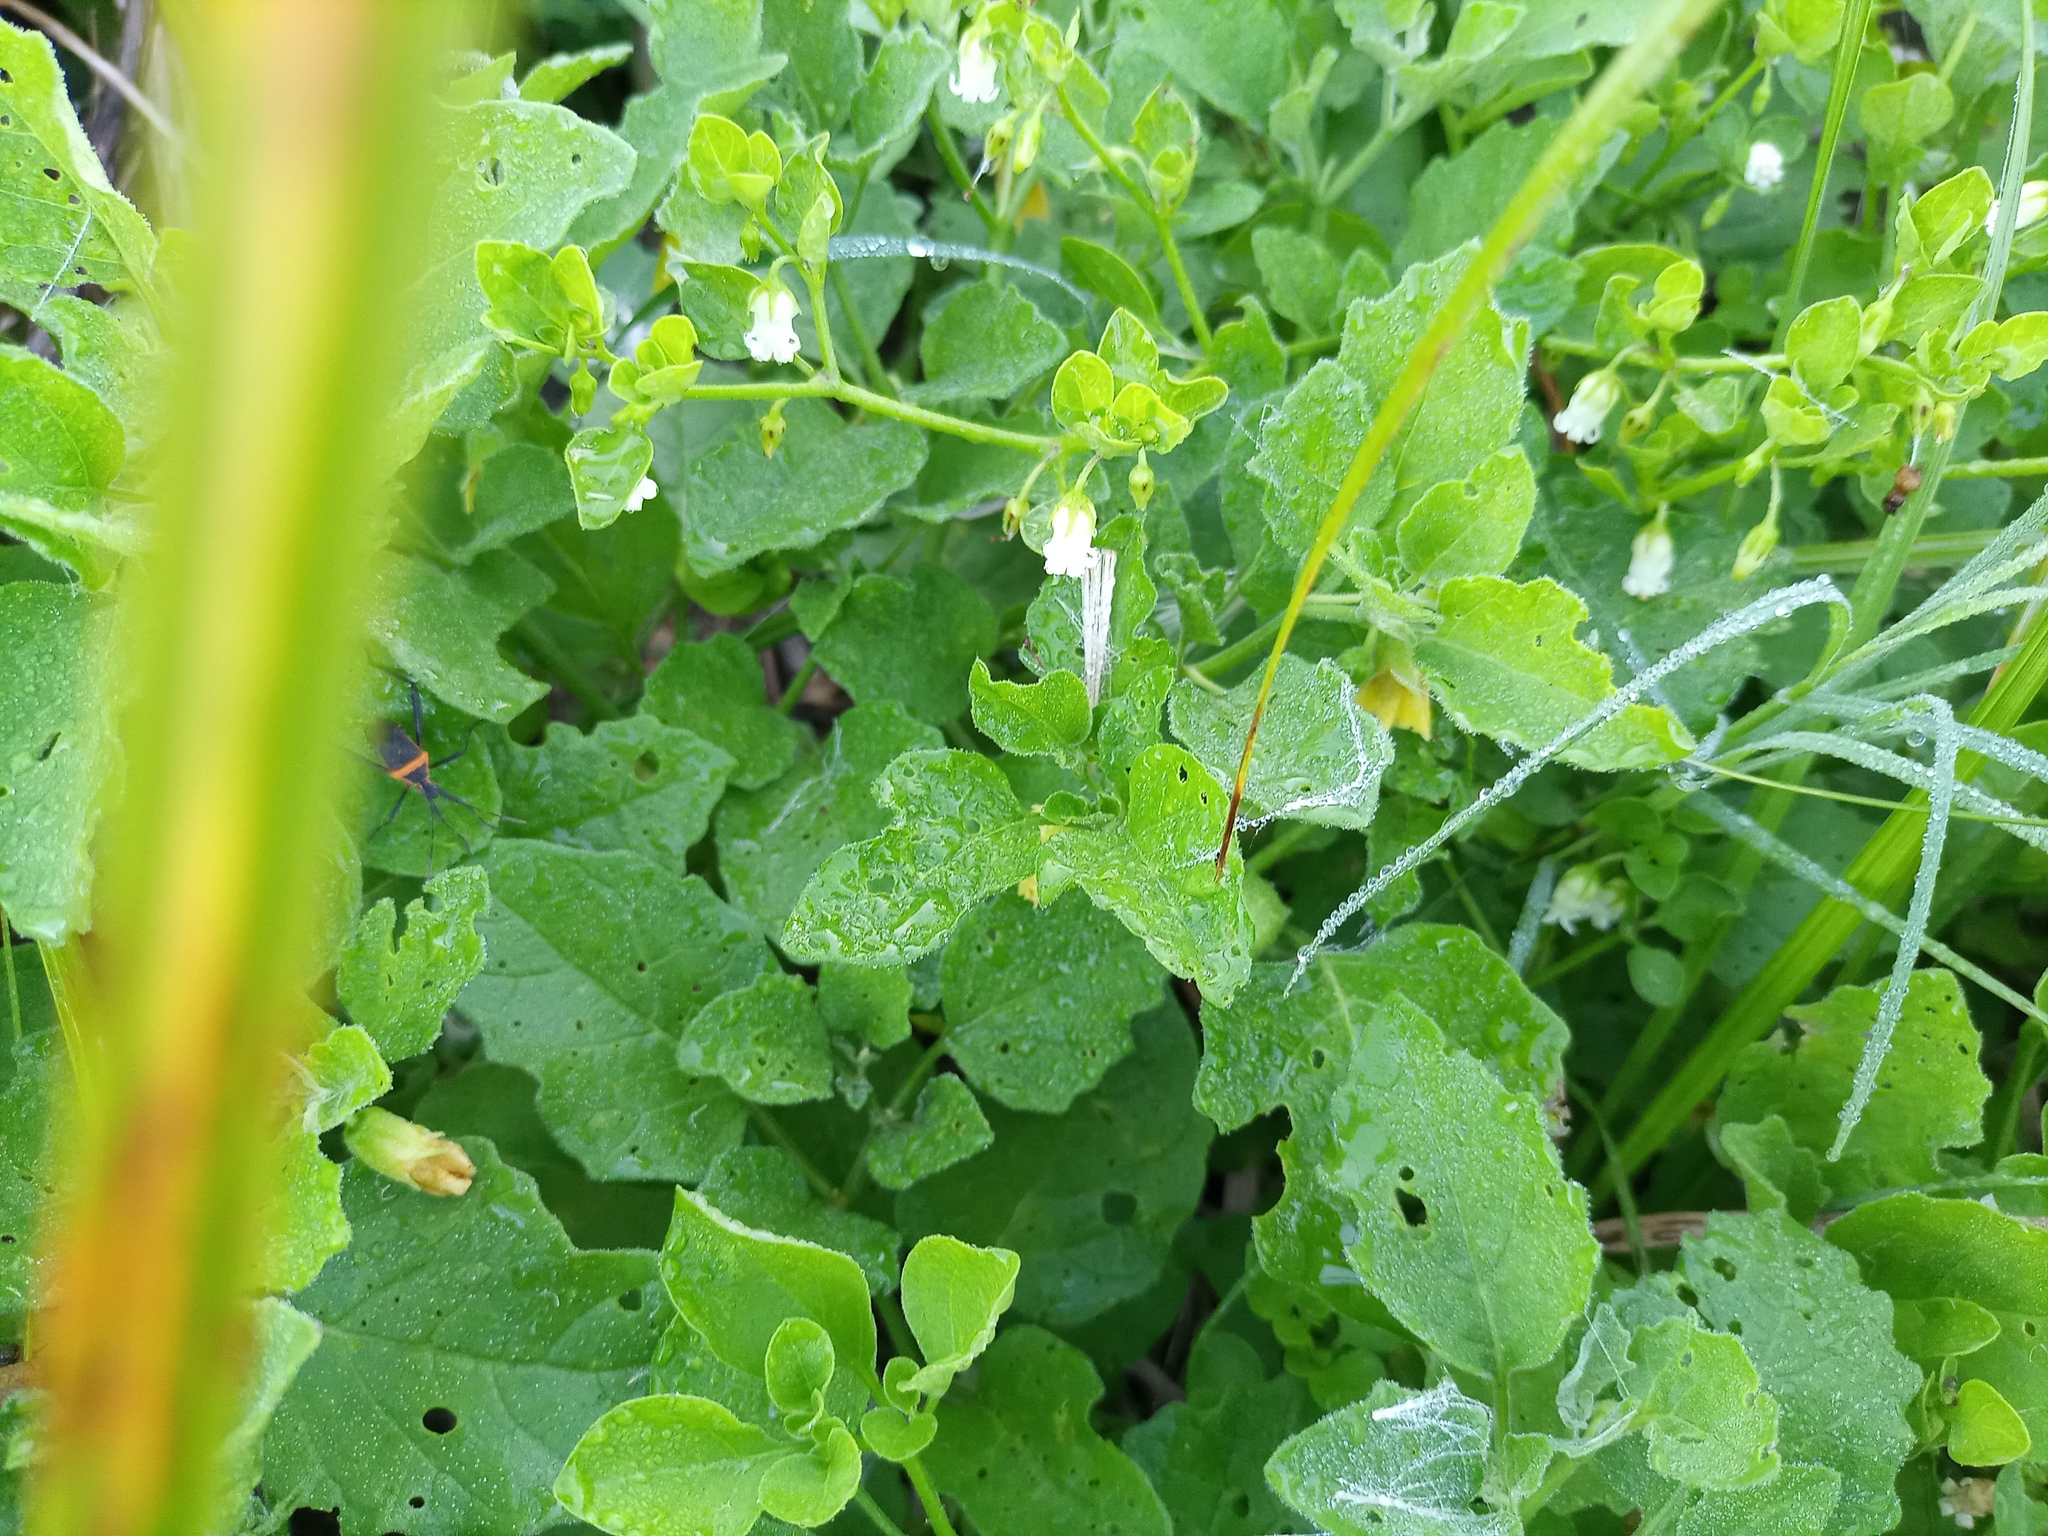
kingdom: Plantae
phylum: Tracheophyta
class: Magnoliopsida
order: Solanales
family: Solanaceae
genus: Salpichroa
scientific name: Salpichroa origanifolia
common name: Lily-of-the-valley-vine
